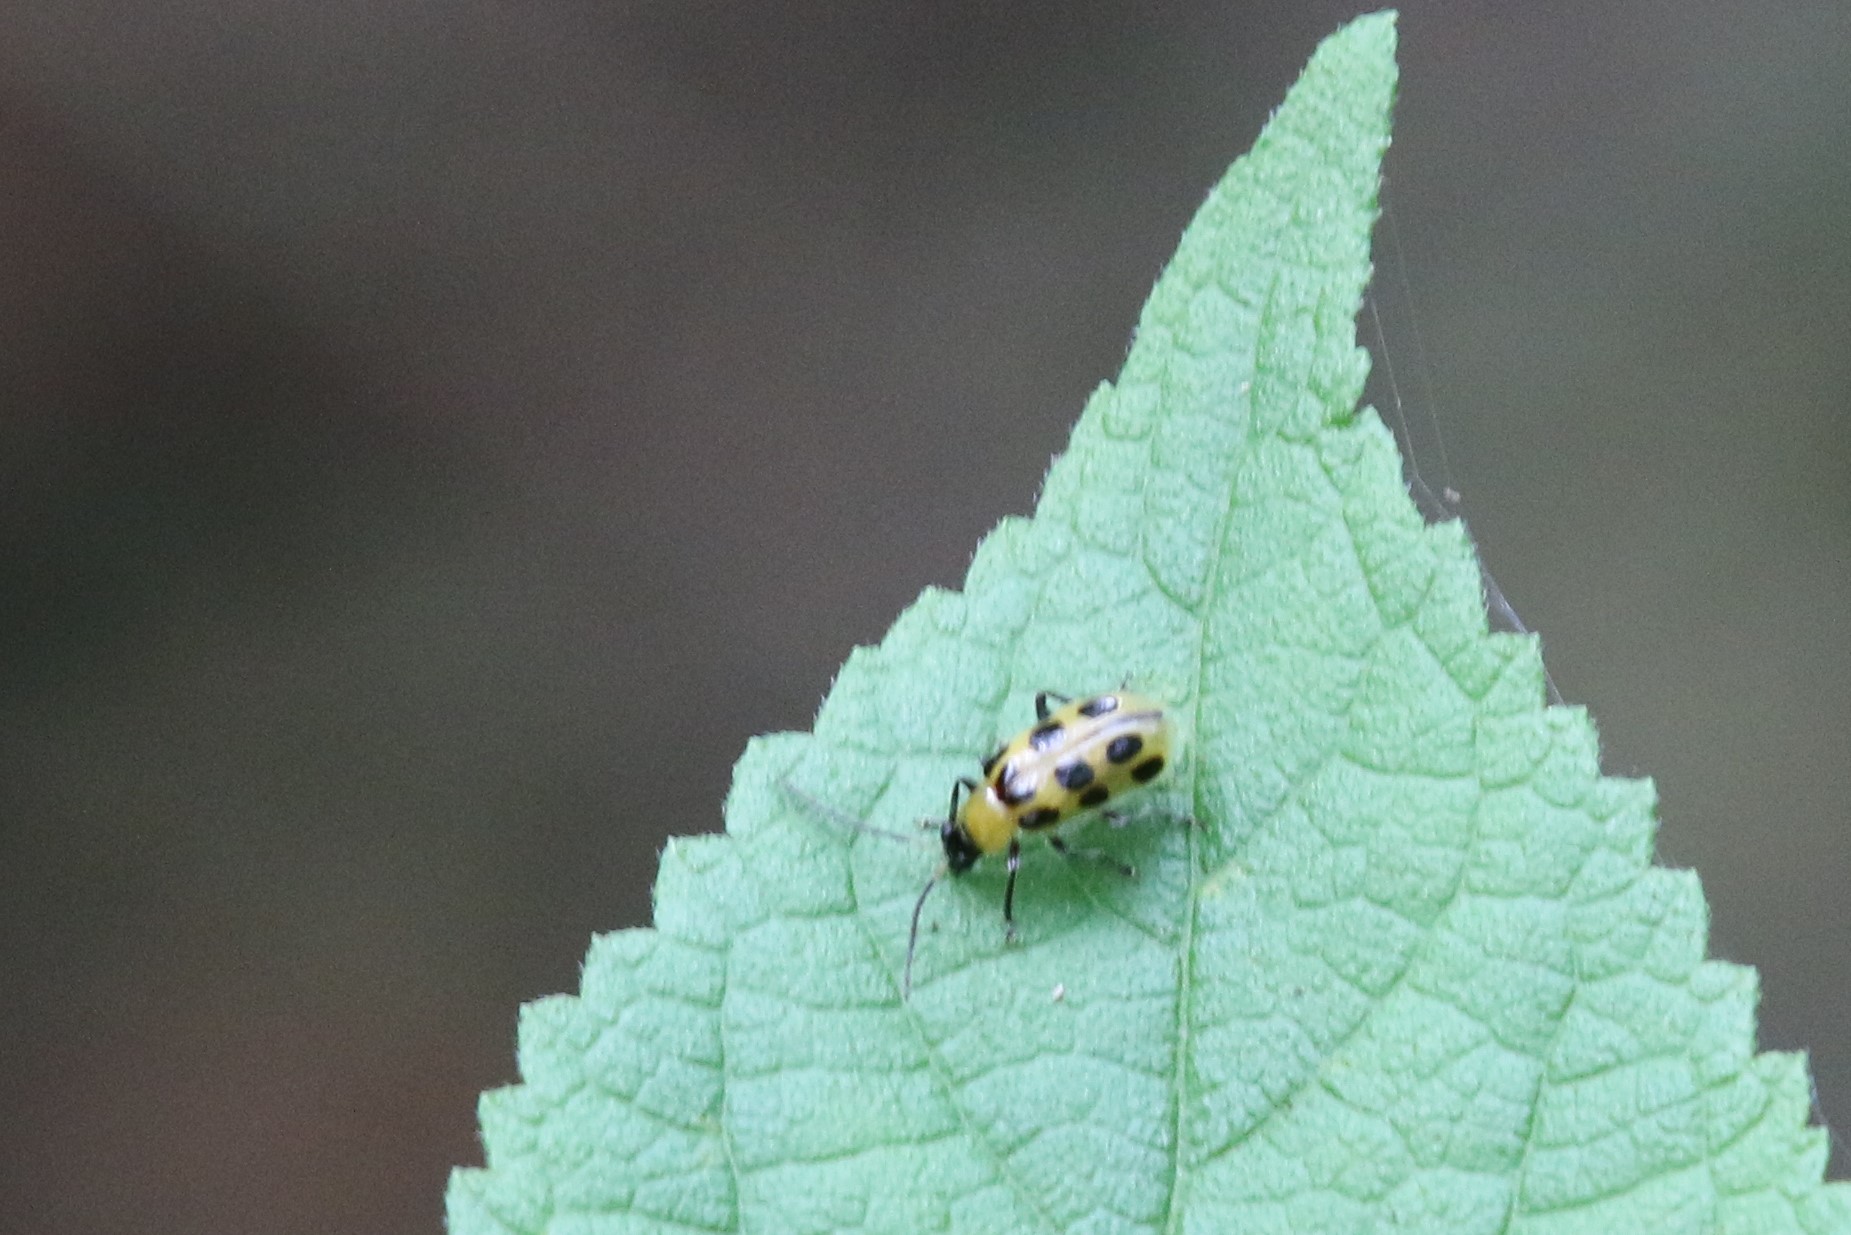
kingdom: Animalia
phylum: Arthropoda
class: Insecta
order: Coleoptera
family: Chrysomelidae
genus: Diabrotica
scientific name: Diabrotica undecimpunctata
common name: Spotted cucumber beetle
